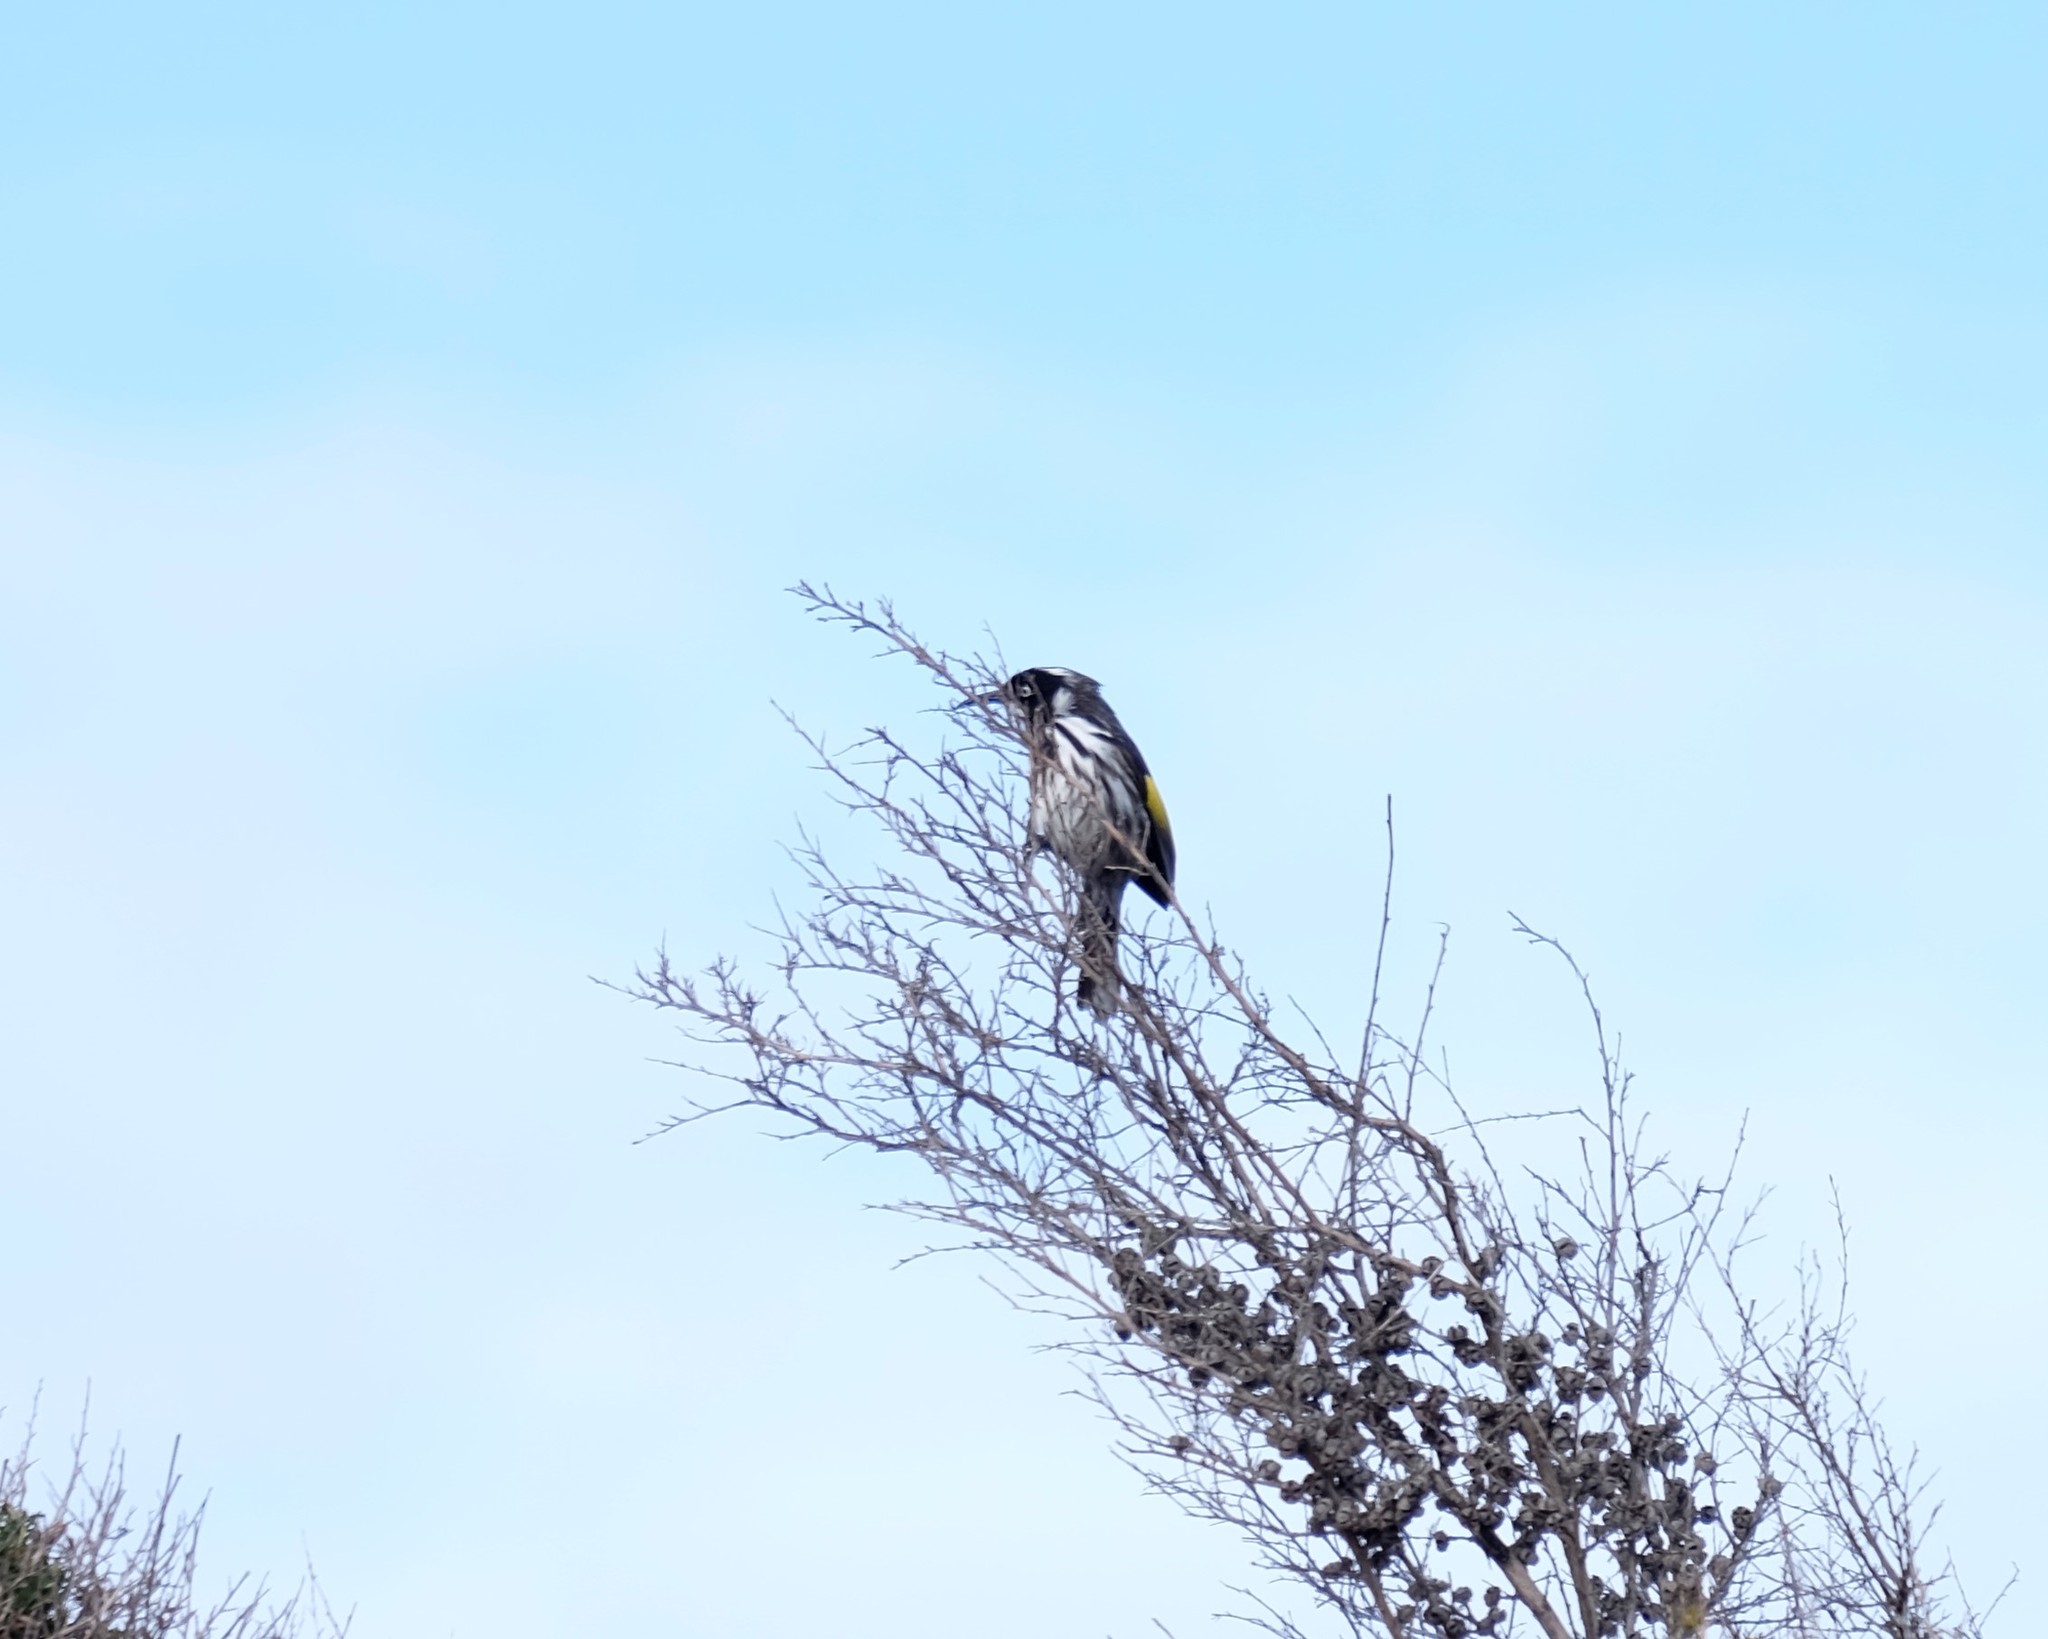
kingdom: Animalia
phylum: Chordata
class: Aves
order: Passeriformes
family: Meliphagidae
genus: Phylidonyris
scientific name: Phylidonyris novaehollandiae
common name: New holland honeyeater
